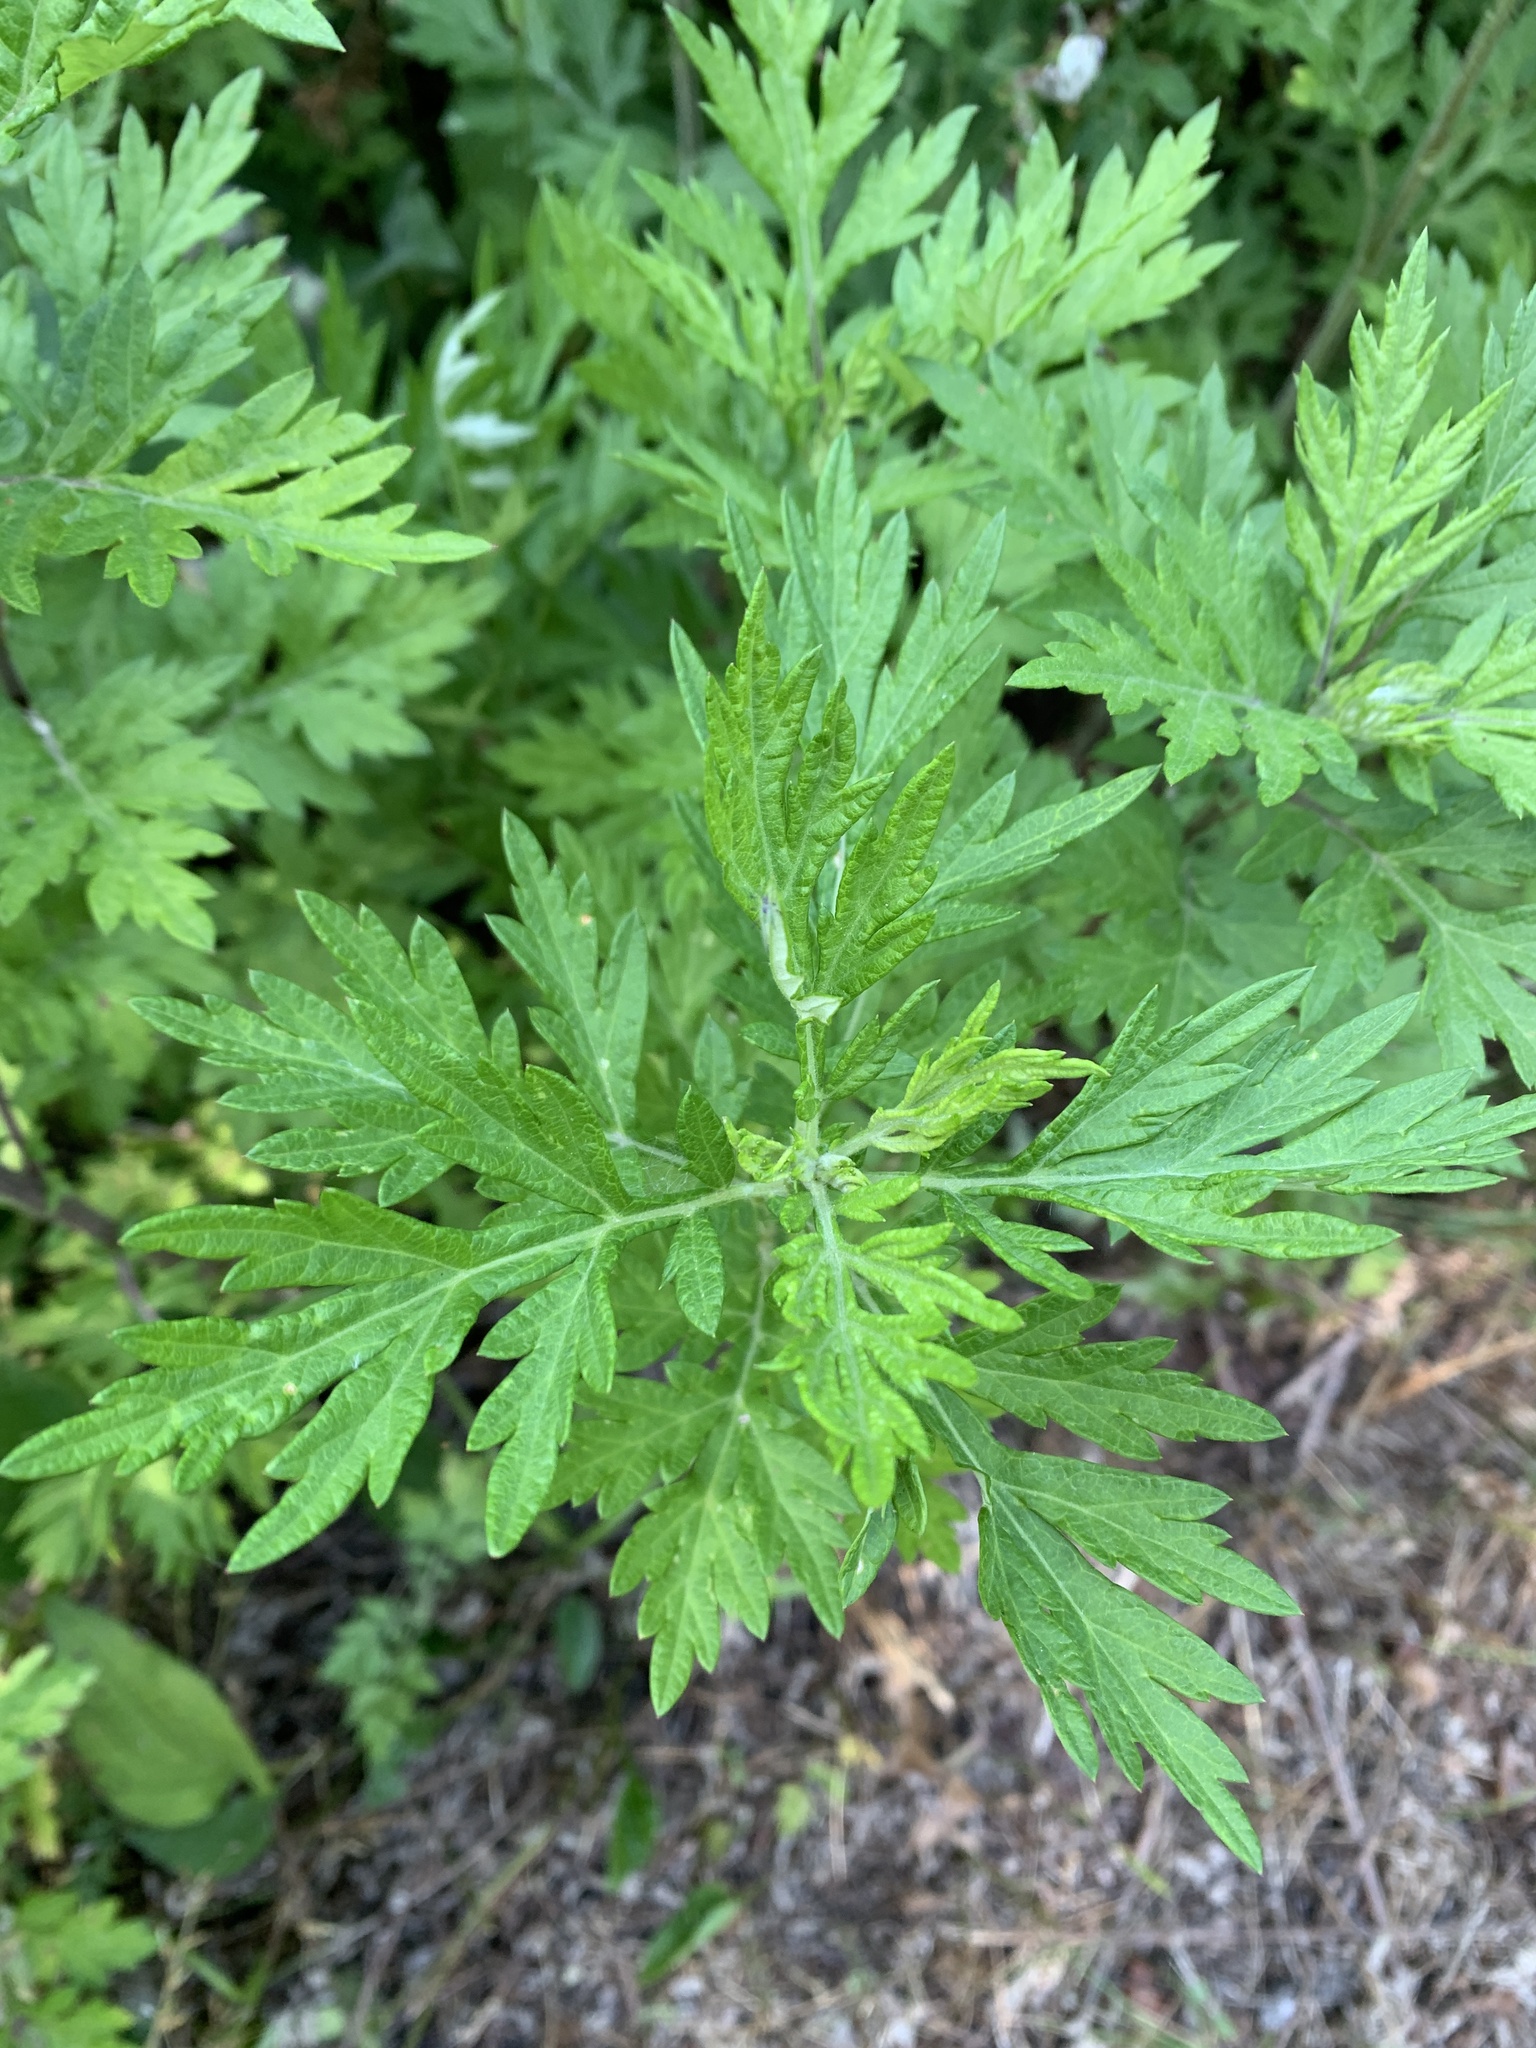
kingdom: Plantae
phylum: Tracheophyta
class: Magnoliopsida
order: Asterales
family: Asteraceae
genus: Artemisia
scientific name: Artemisia vulgaris
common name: Mugwort
